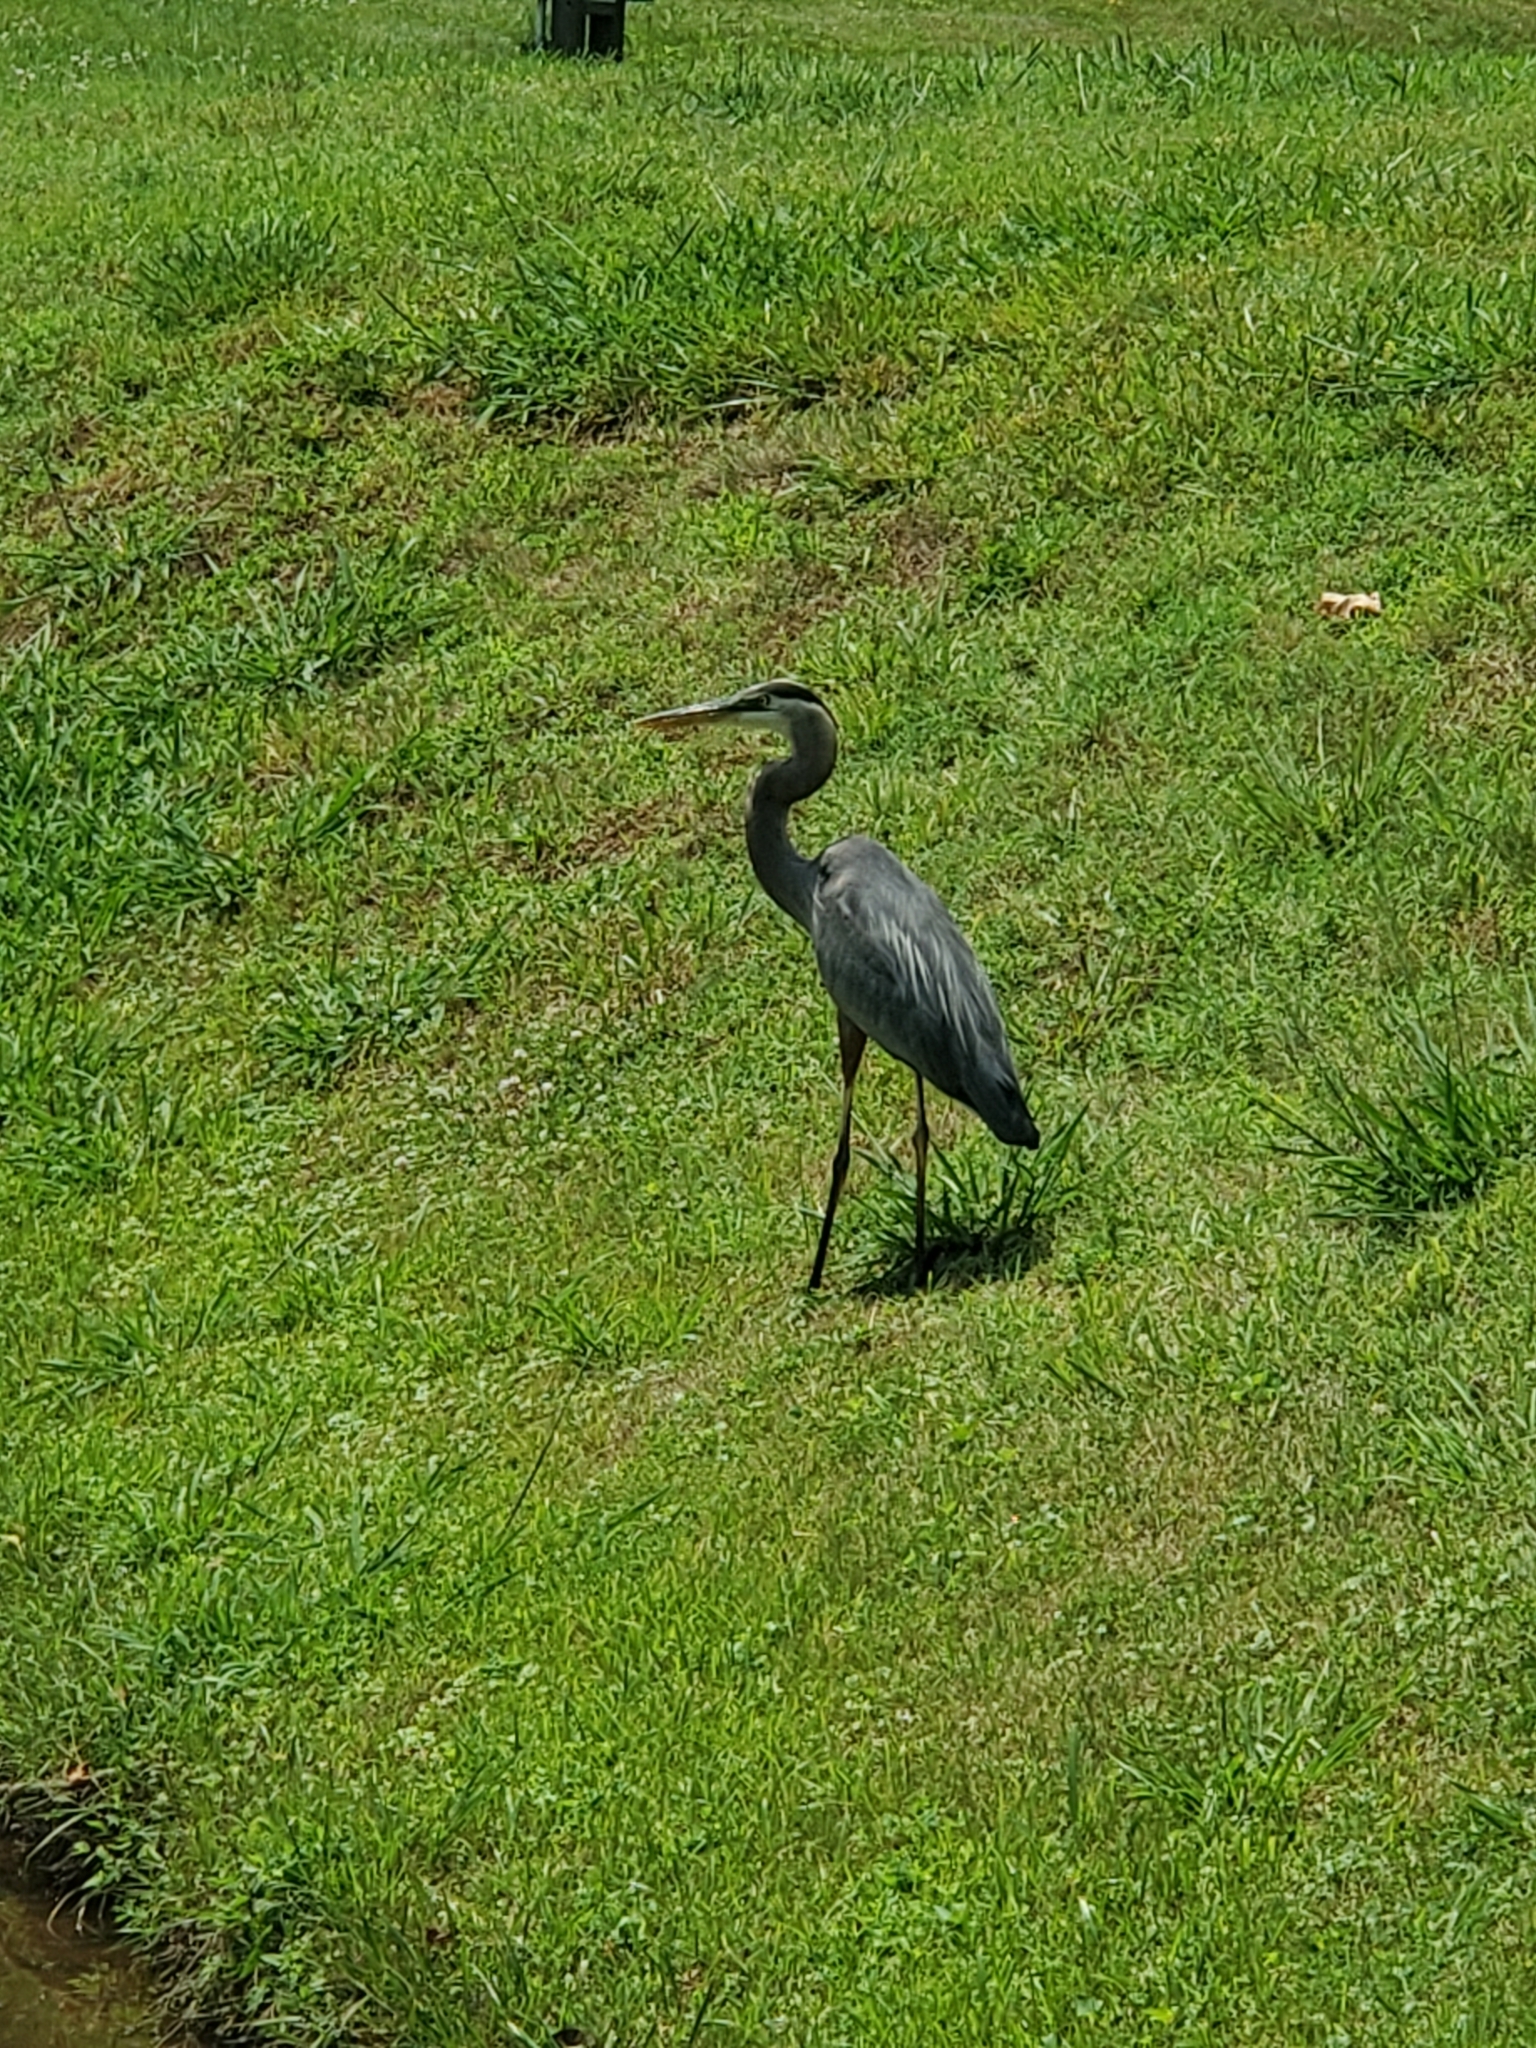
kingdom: Animalia
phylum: Chordata
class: Aves
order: Pelecaniformes
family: Ardeidae
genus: Ardea
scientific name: Ardea herodias
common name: Great blue heron
